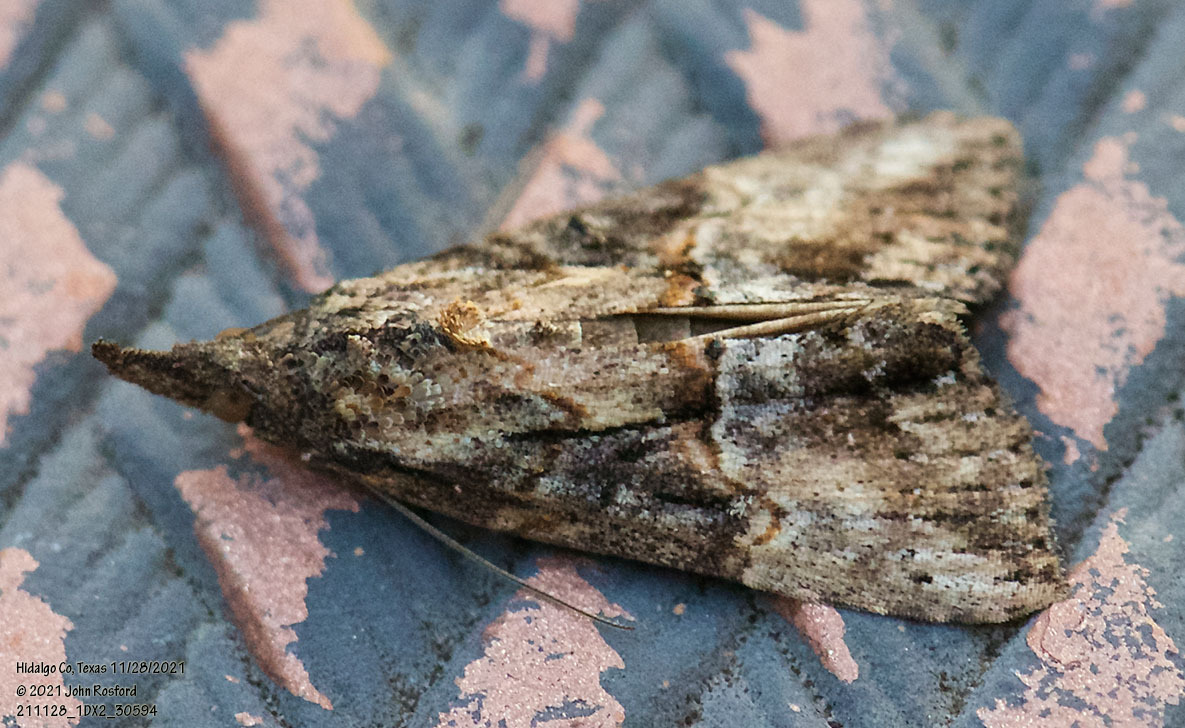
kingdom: Animalia
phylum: Arthropoda
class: Insecta
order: Lepidoptera
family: Erebidae
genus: Hypena
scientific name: Hypena scabra
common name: Green cloverworm
